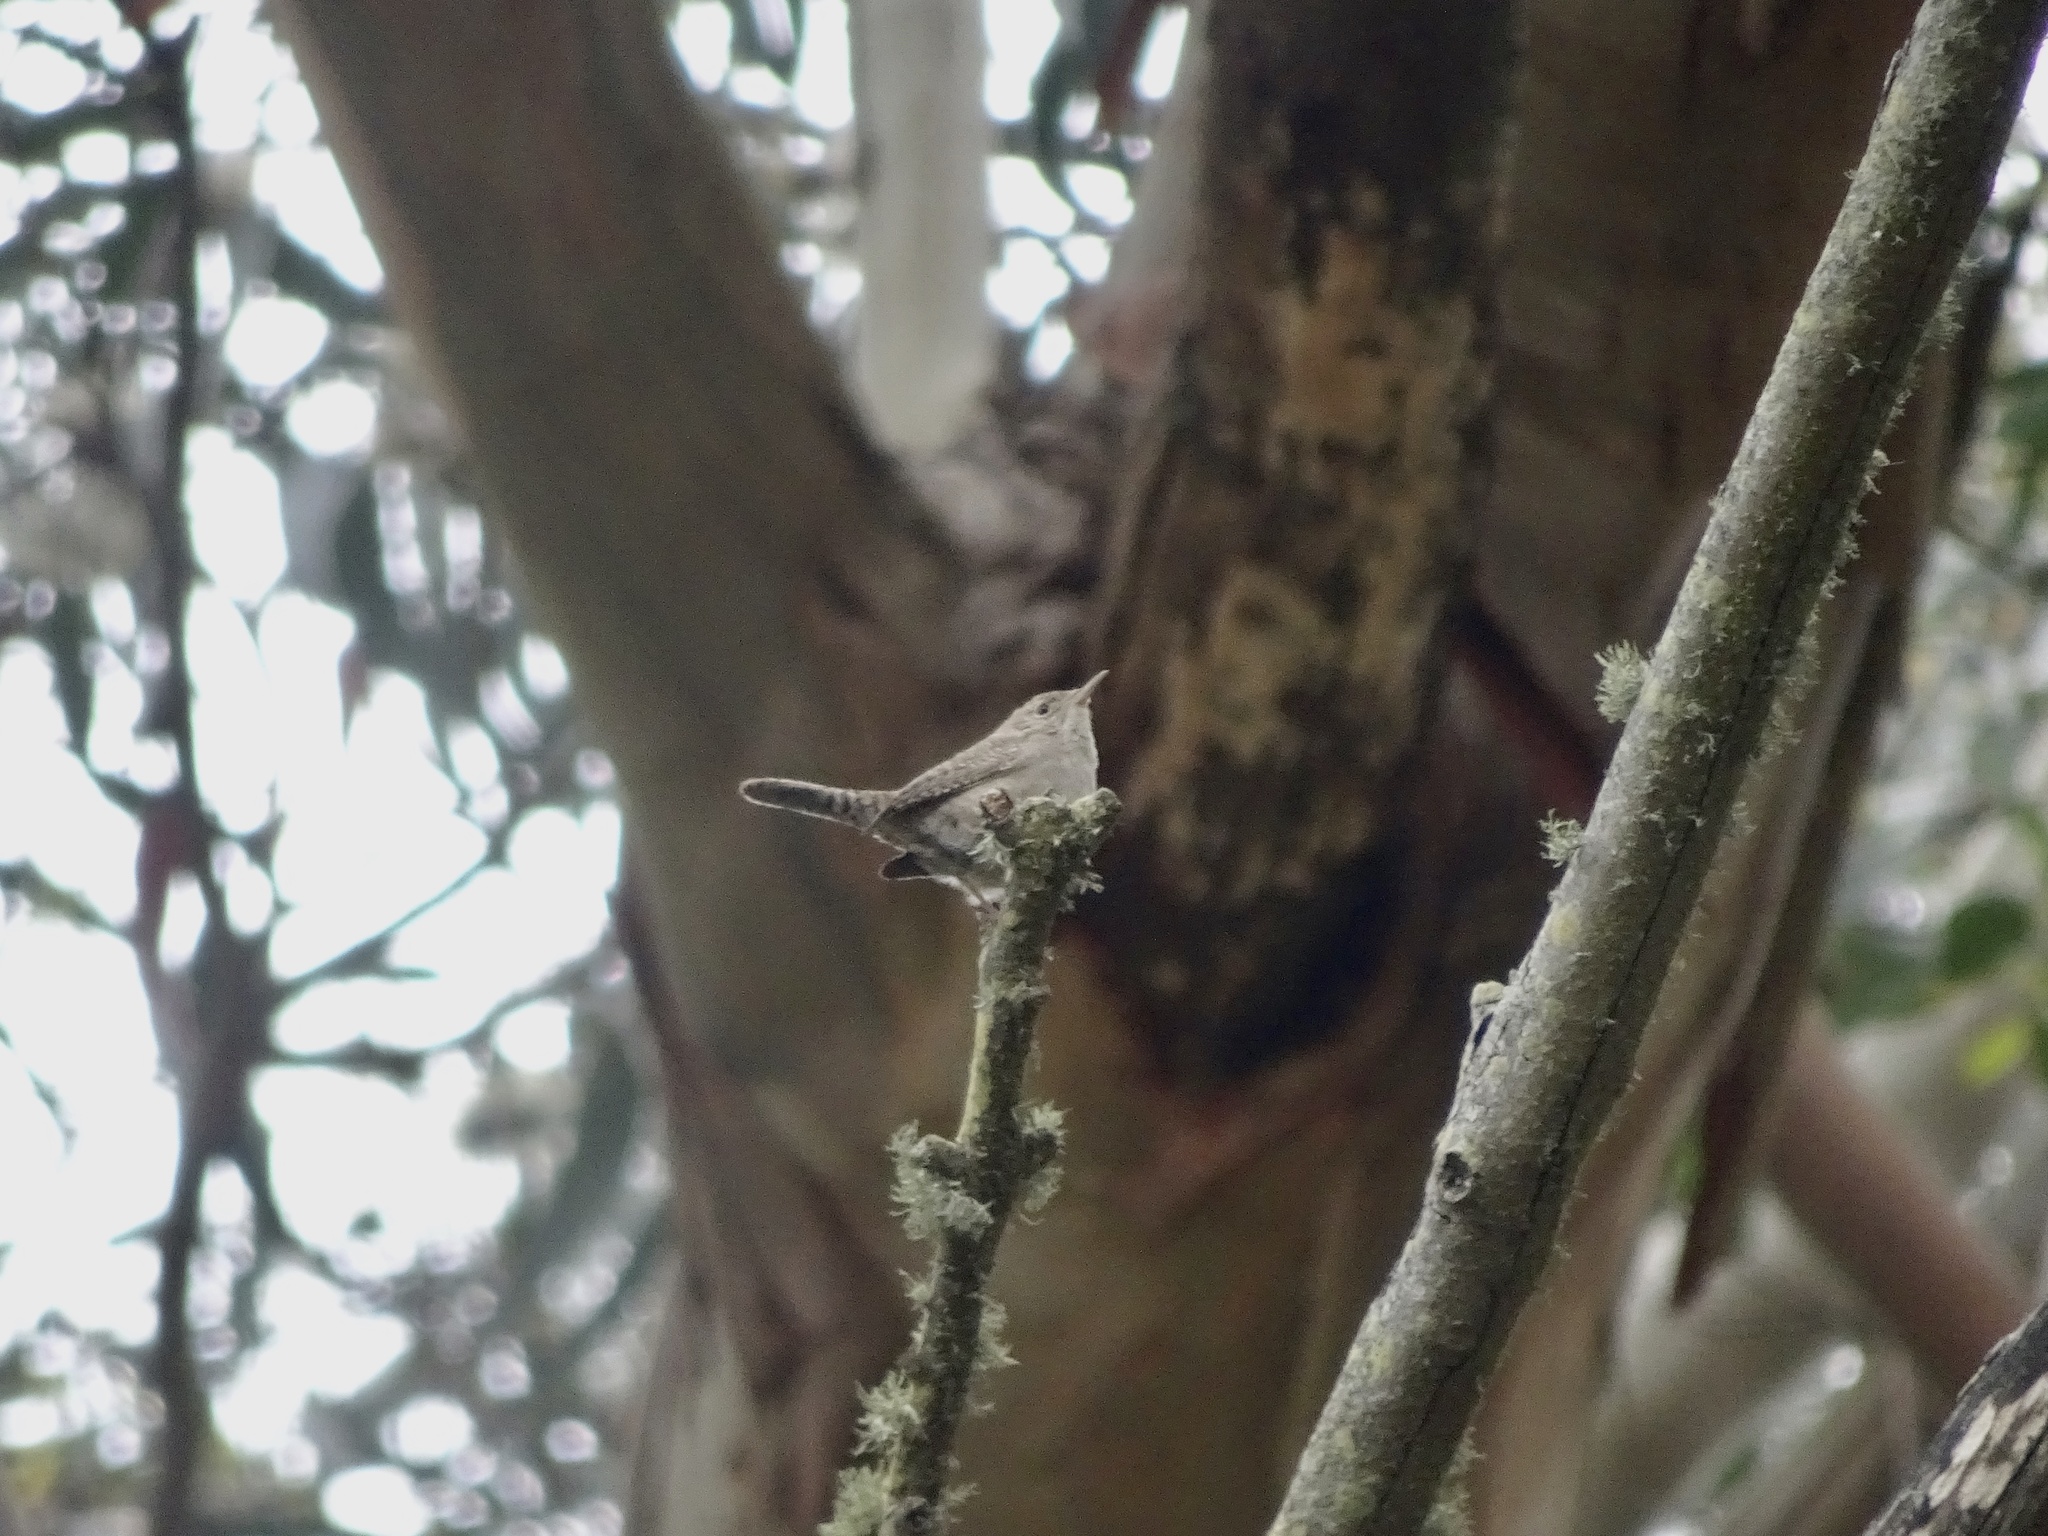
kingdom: Animalia
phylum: Chordata
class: Aves
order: Passeriformes
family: Troglodytidae
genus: Troglodytes
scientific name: Troglodytes aedon
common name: House wren
